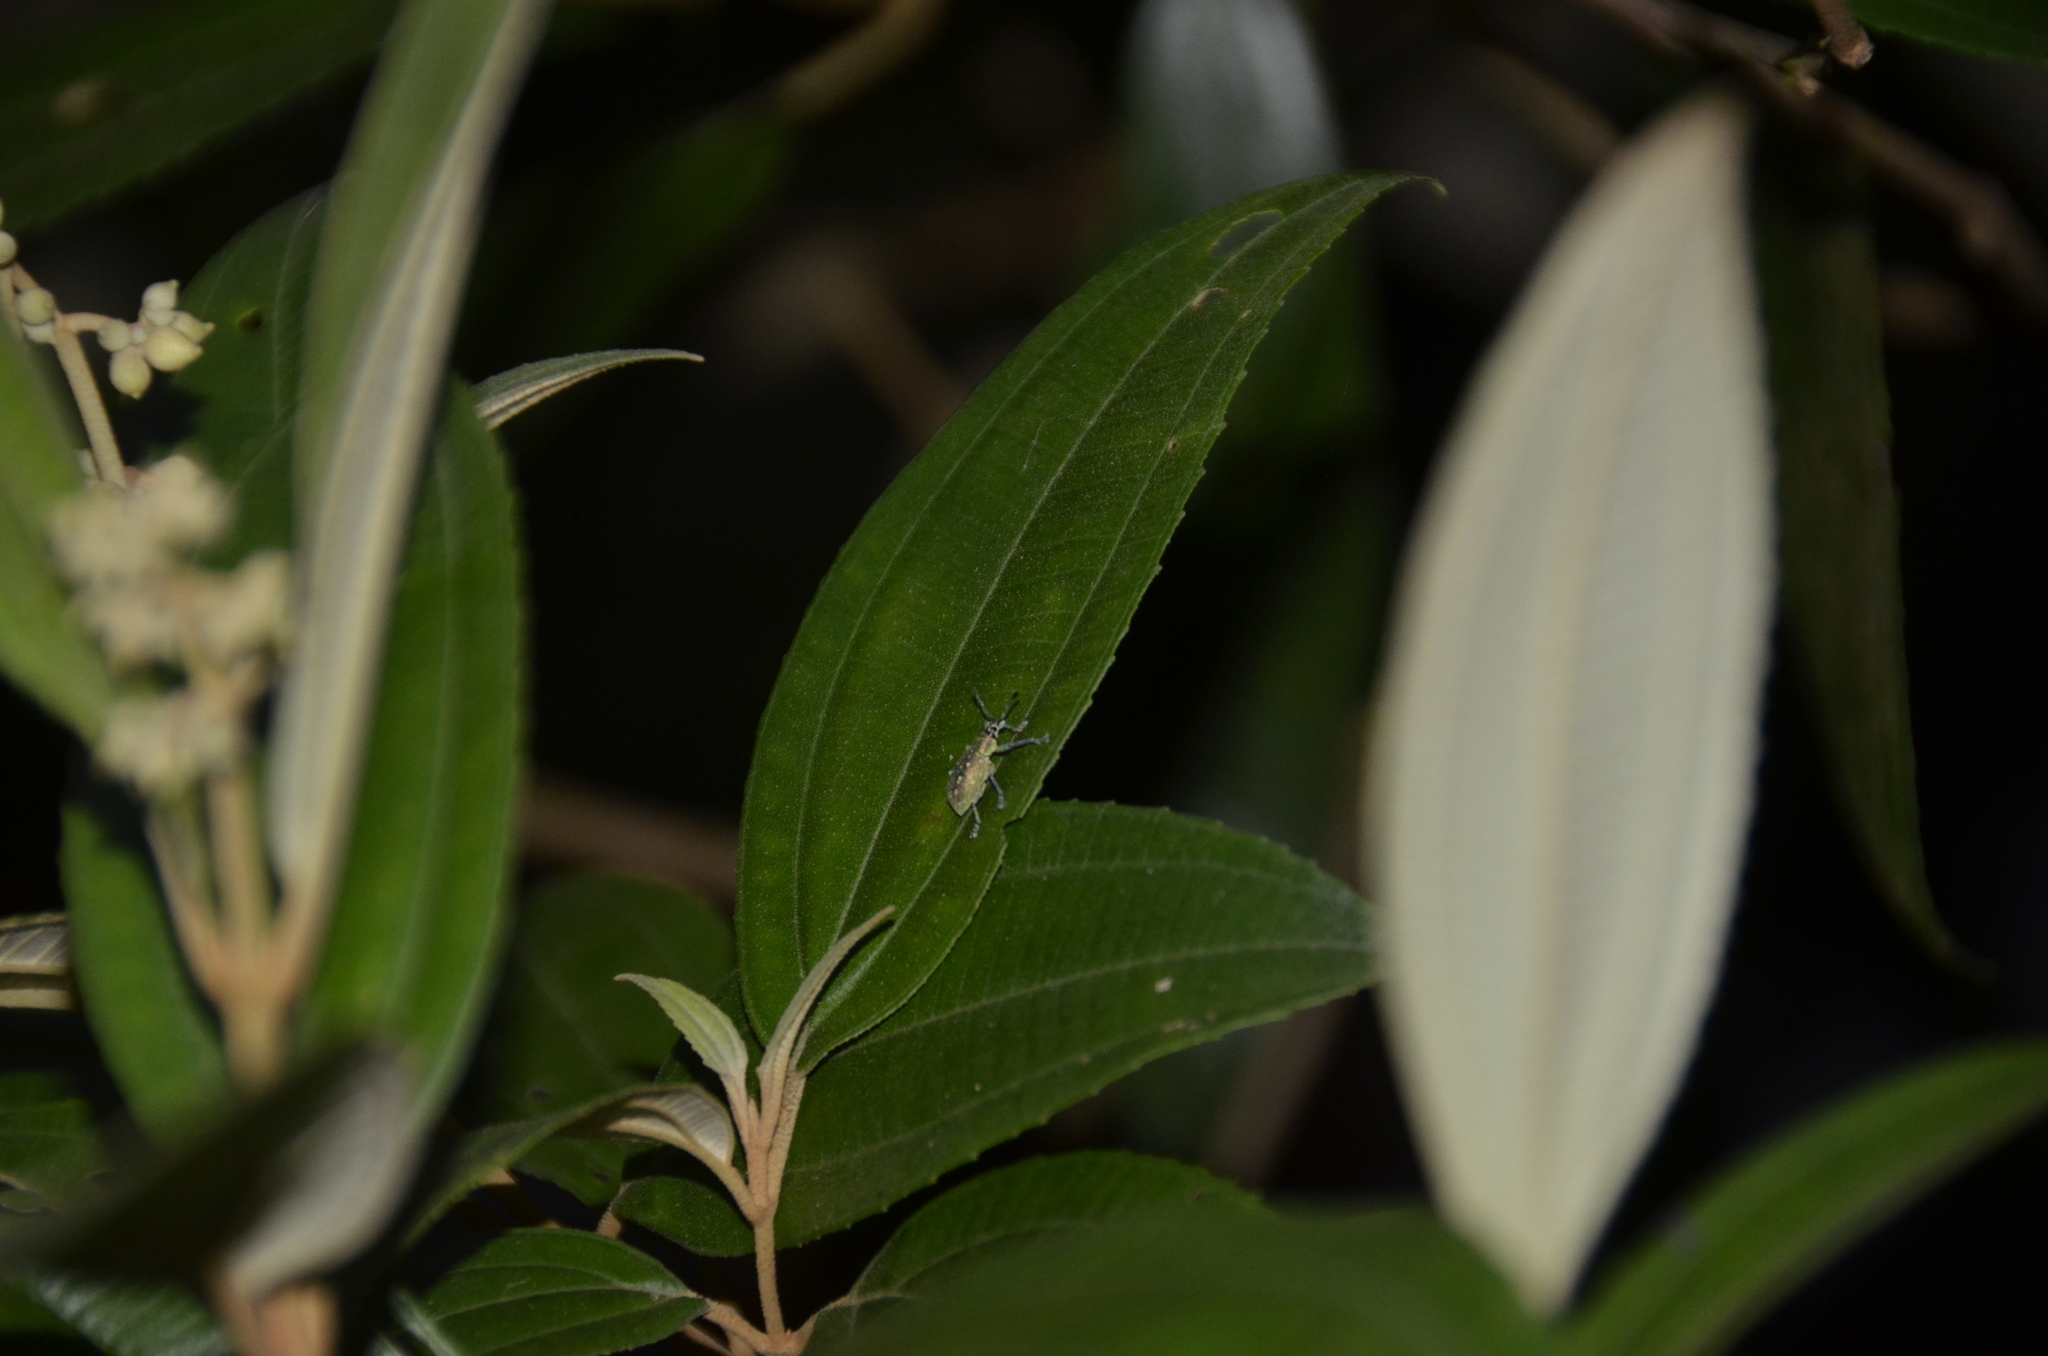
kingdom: Animalia
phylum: Arthropoda
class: Insecta
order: Coleoptera
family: Curculionidae
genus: Exophthalmus
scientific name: Exophthalmus jekelianus
